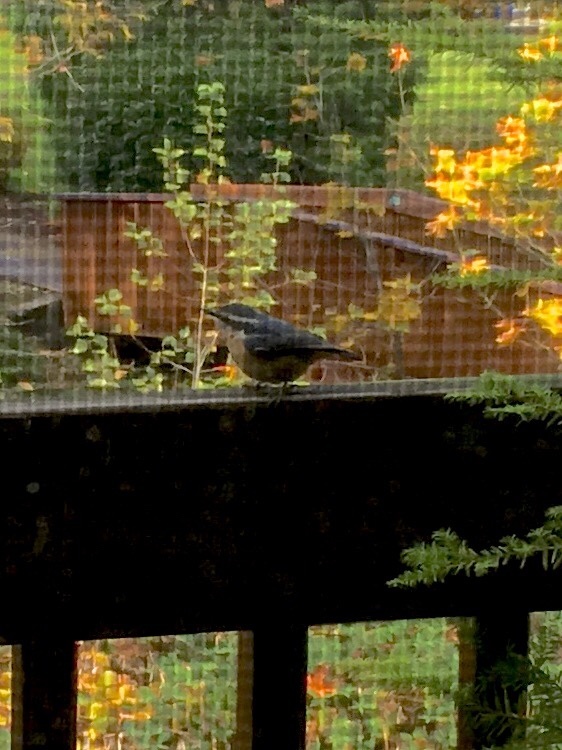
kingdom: Animalia
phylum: Chordata
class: Aves
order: Passeriformes
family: Sittidae
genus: Sitta
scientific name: Sitta canadensis
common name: Red-breasted nuthatch
